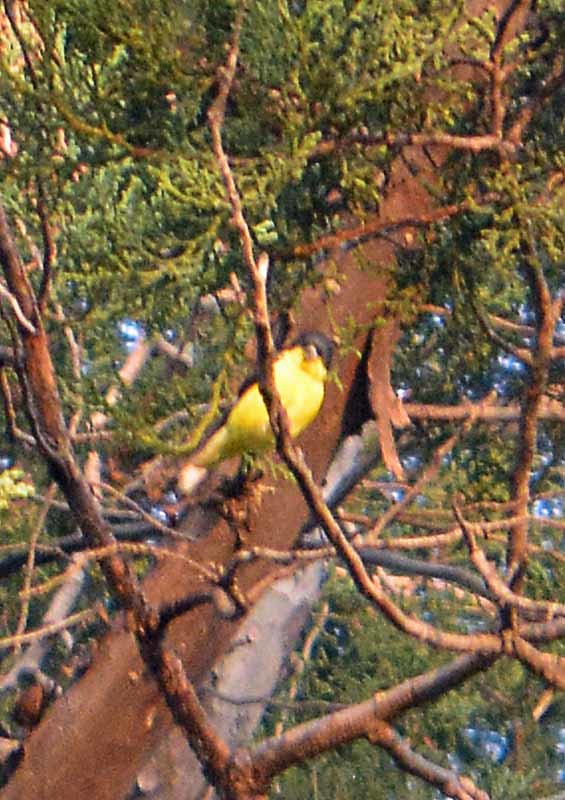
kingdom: Animalia
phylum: Chordata
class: Aves
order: Passeriformes
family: Fringillidae
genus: Spinus
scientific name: Spinus psaltria
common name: Lesser goldfinch
